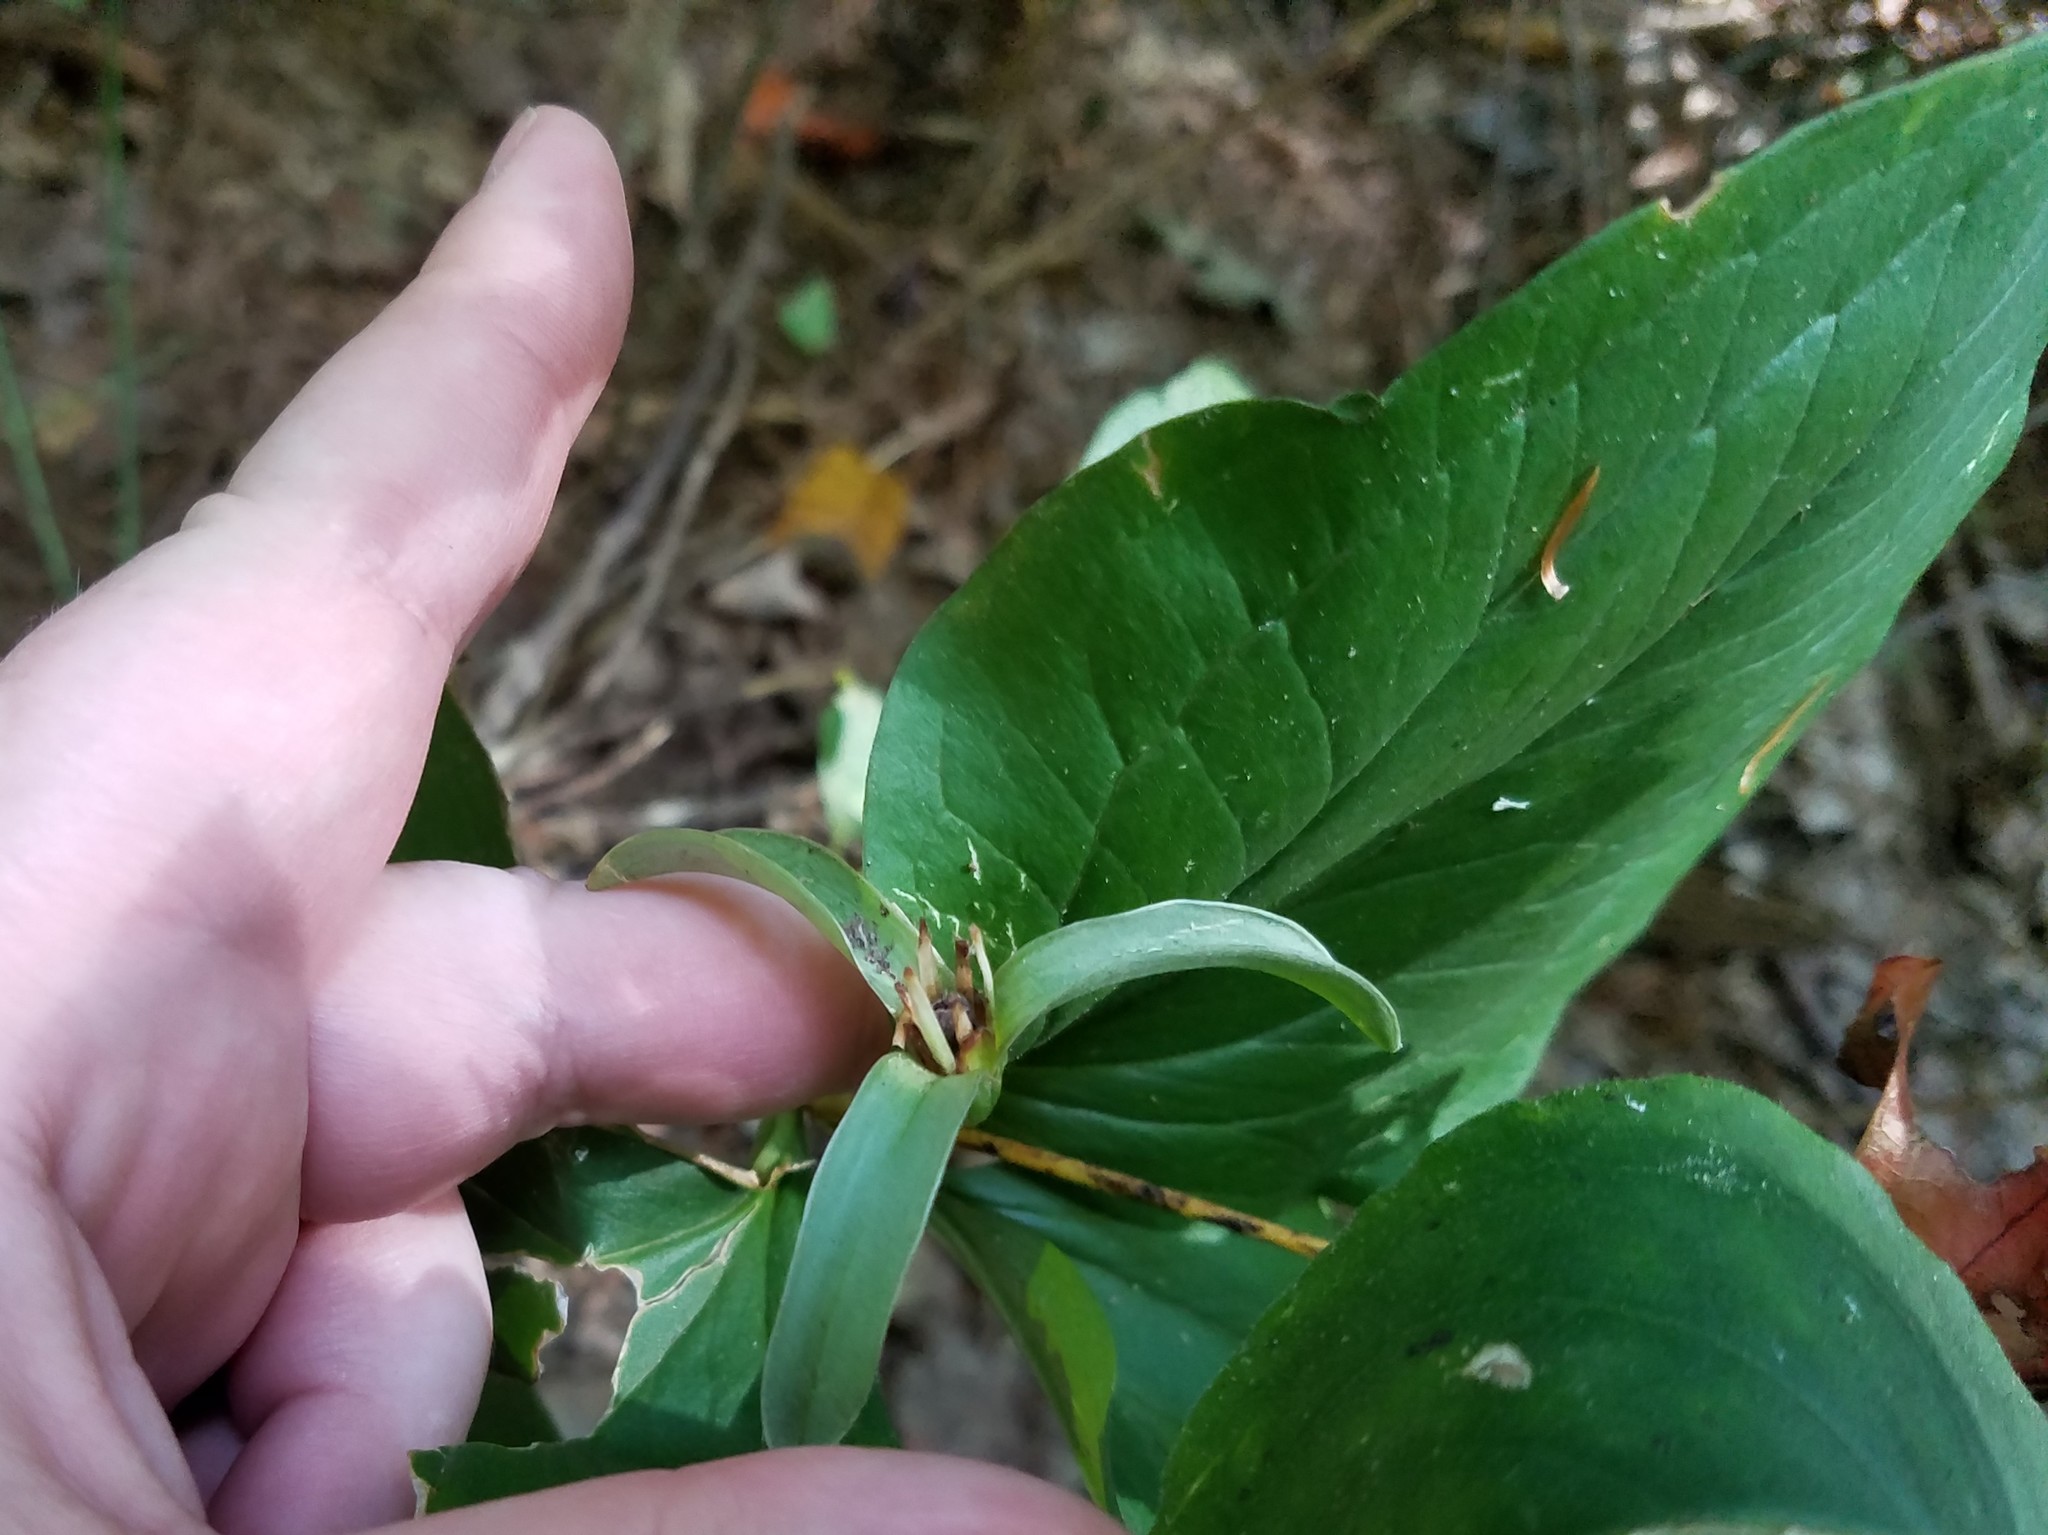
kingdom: Plantae
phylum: Tracheophyta
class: Liliopsida
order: Liliales
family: Melanthiaceae
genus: Trillium
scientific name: Trillium catesbaei
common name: Bashful trillium
